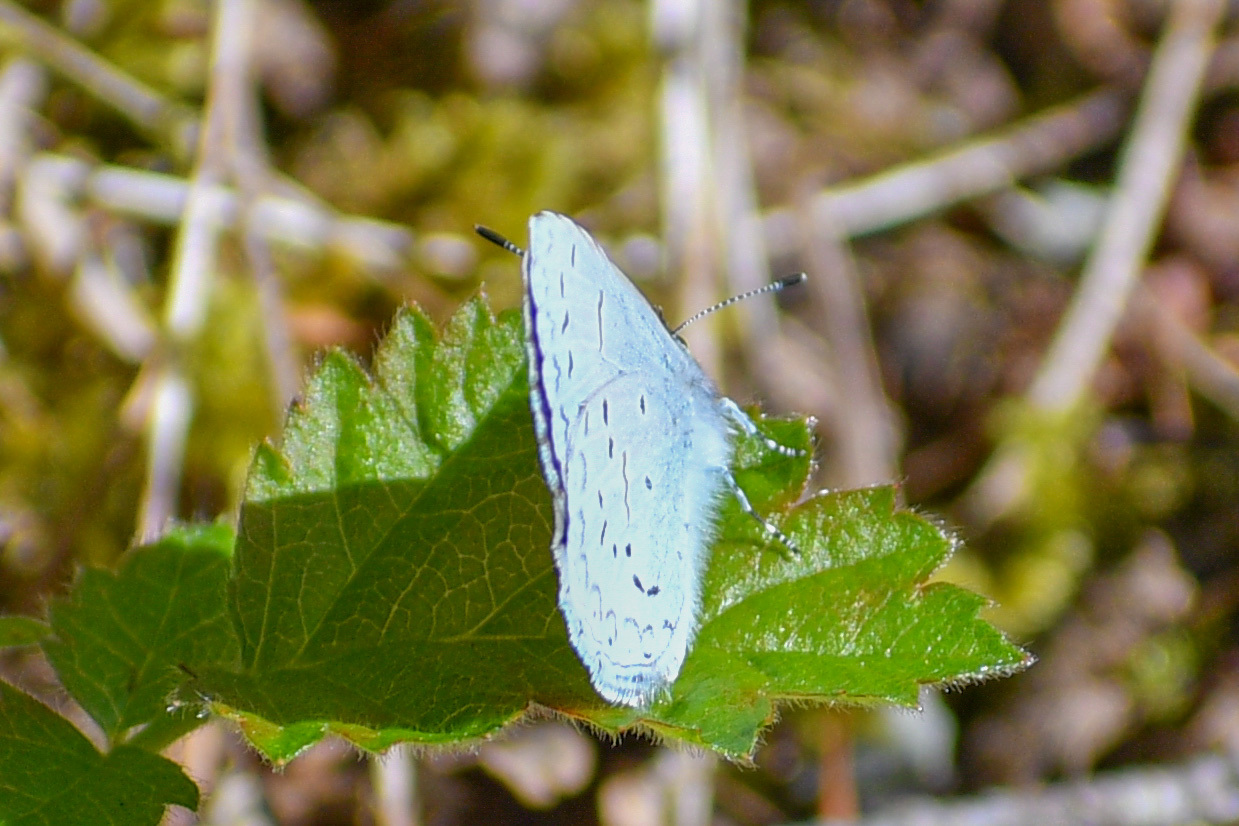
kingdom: Animalia
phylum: Arthropoda
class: Insecta
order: Lepidoptera
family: Lycaenidae
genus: Celastrina
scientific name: Celastrina ladon
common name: Spring azure
